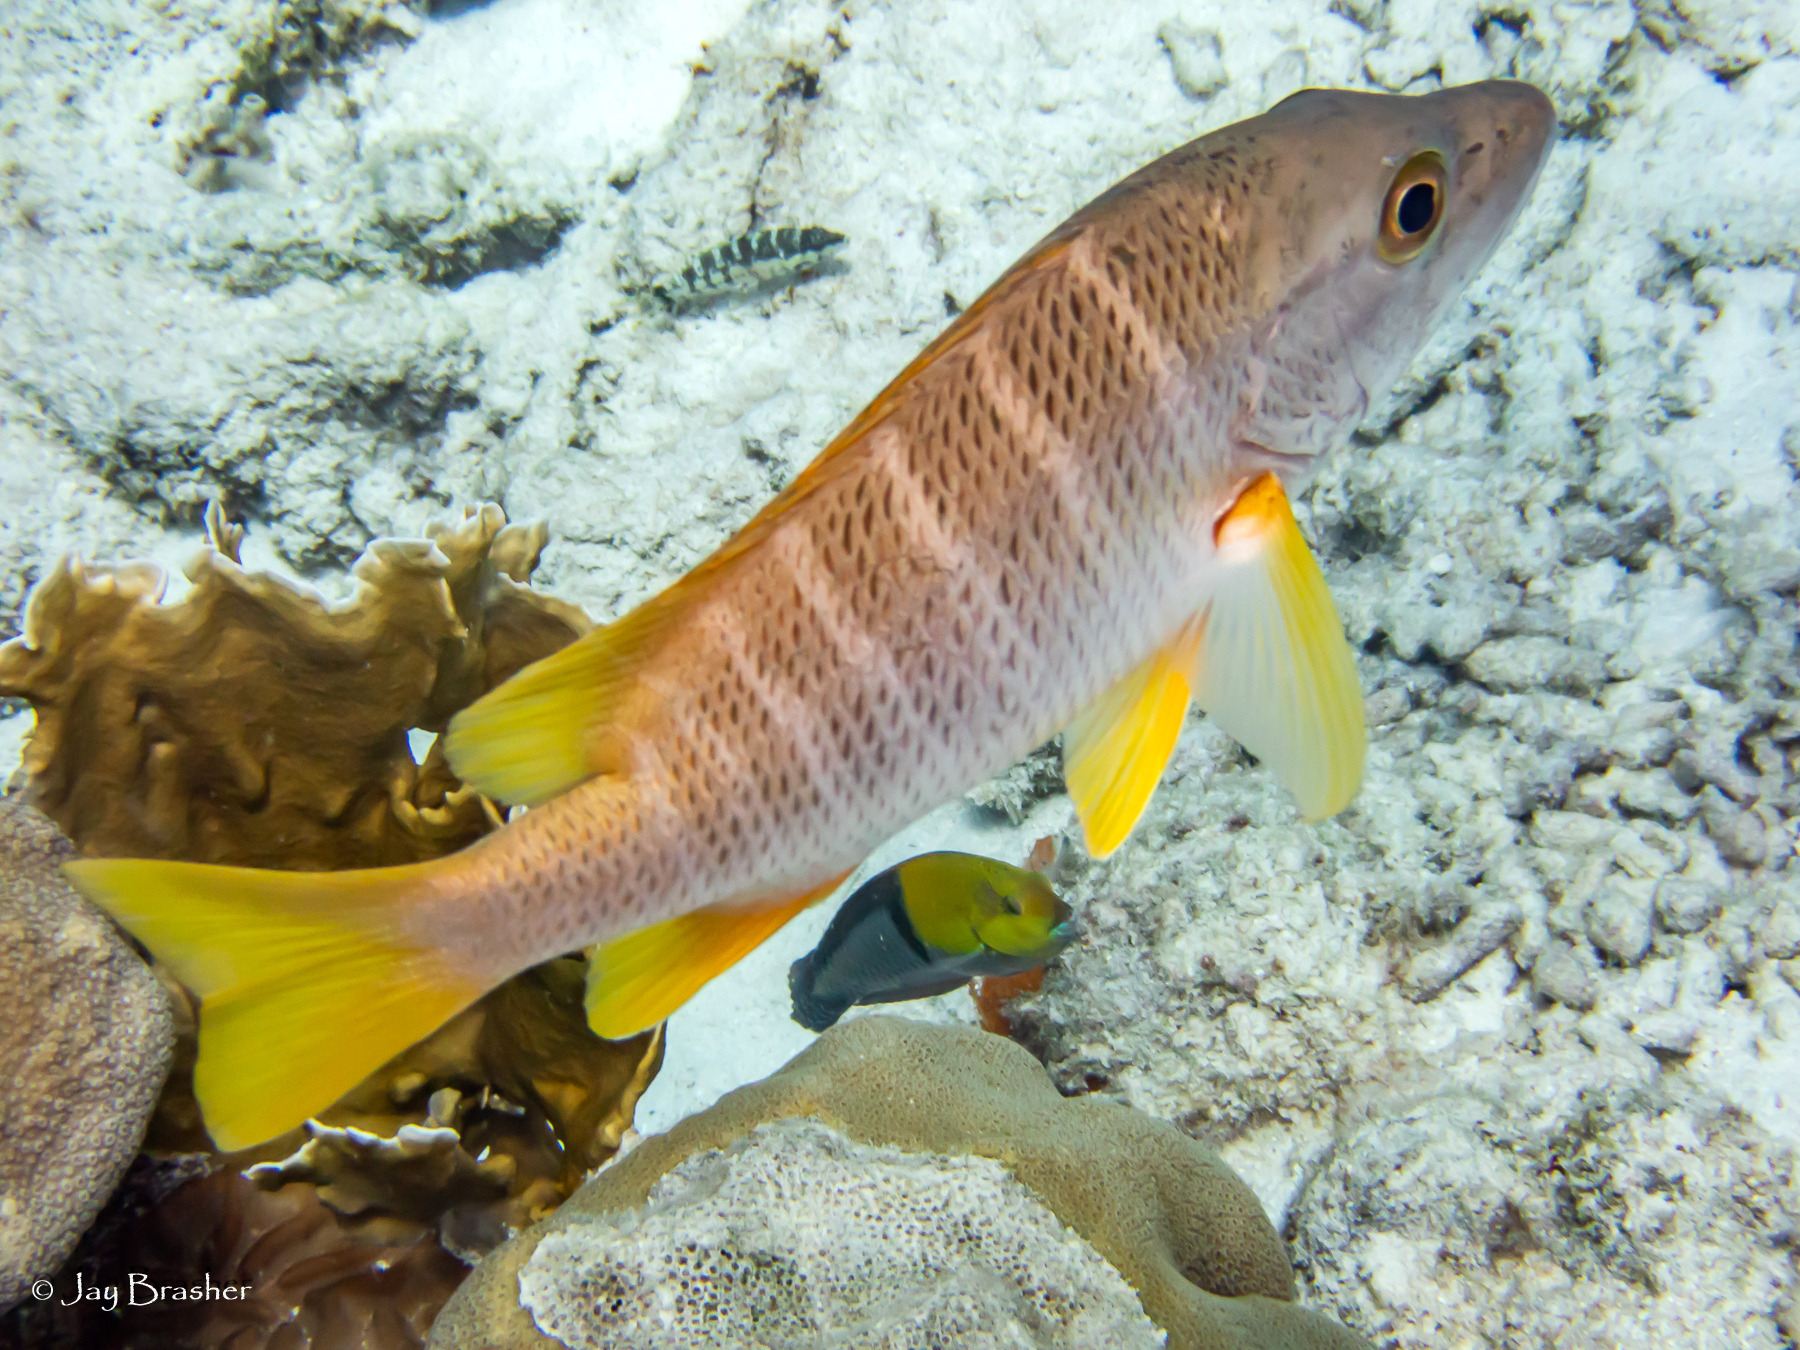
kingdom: Animalia
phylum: Chordata
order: Perciformes
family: Labridae
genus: Halichoeres
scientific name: Halichoeres garnoti
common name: Yellowhead wrasse
